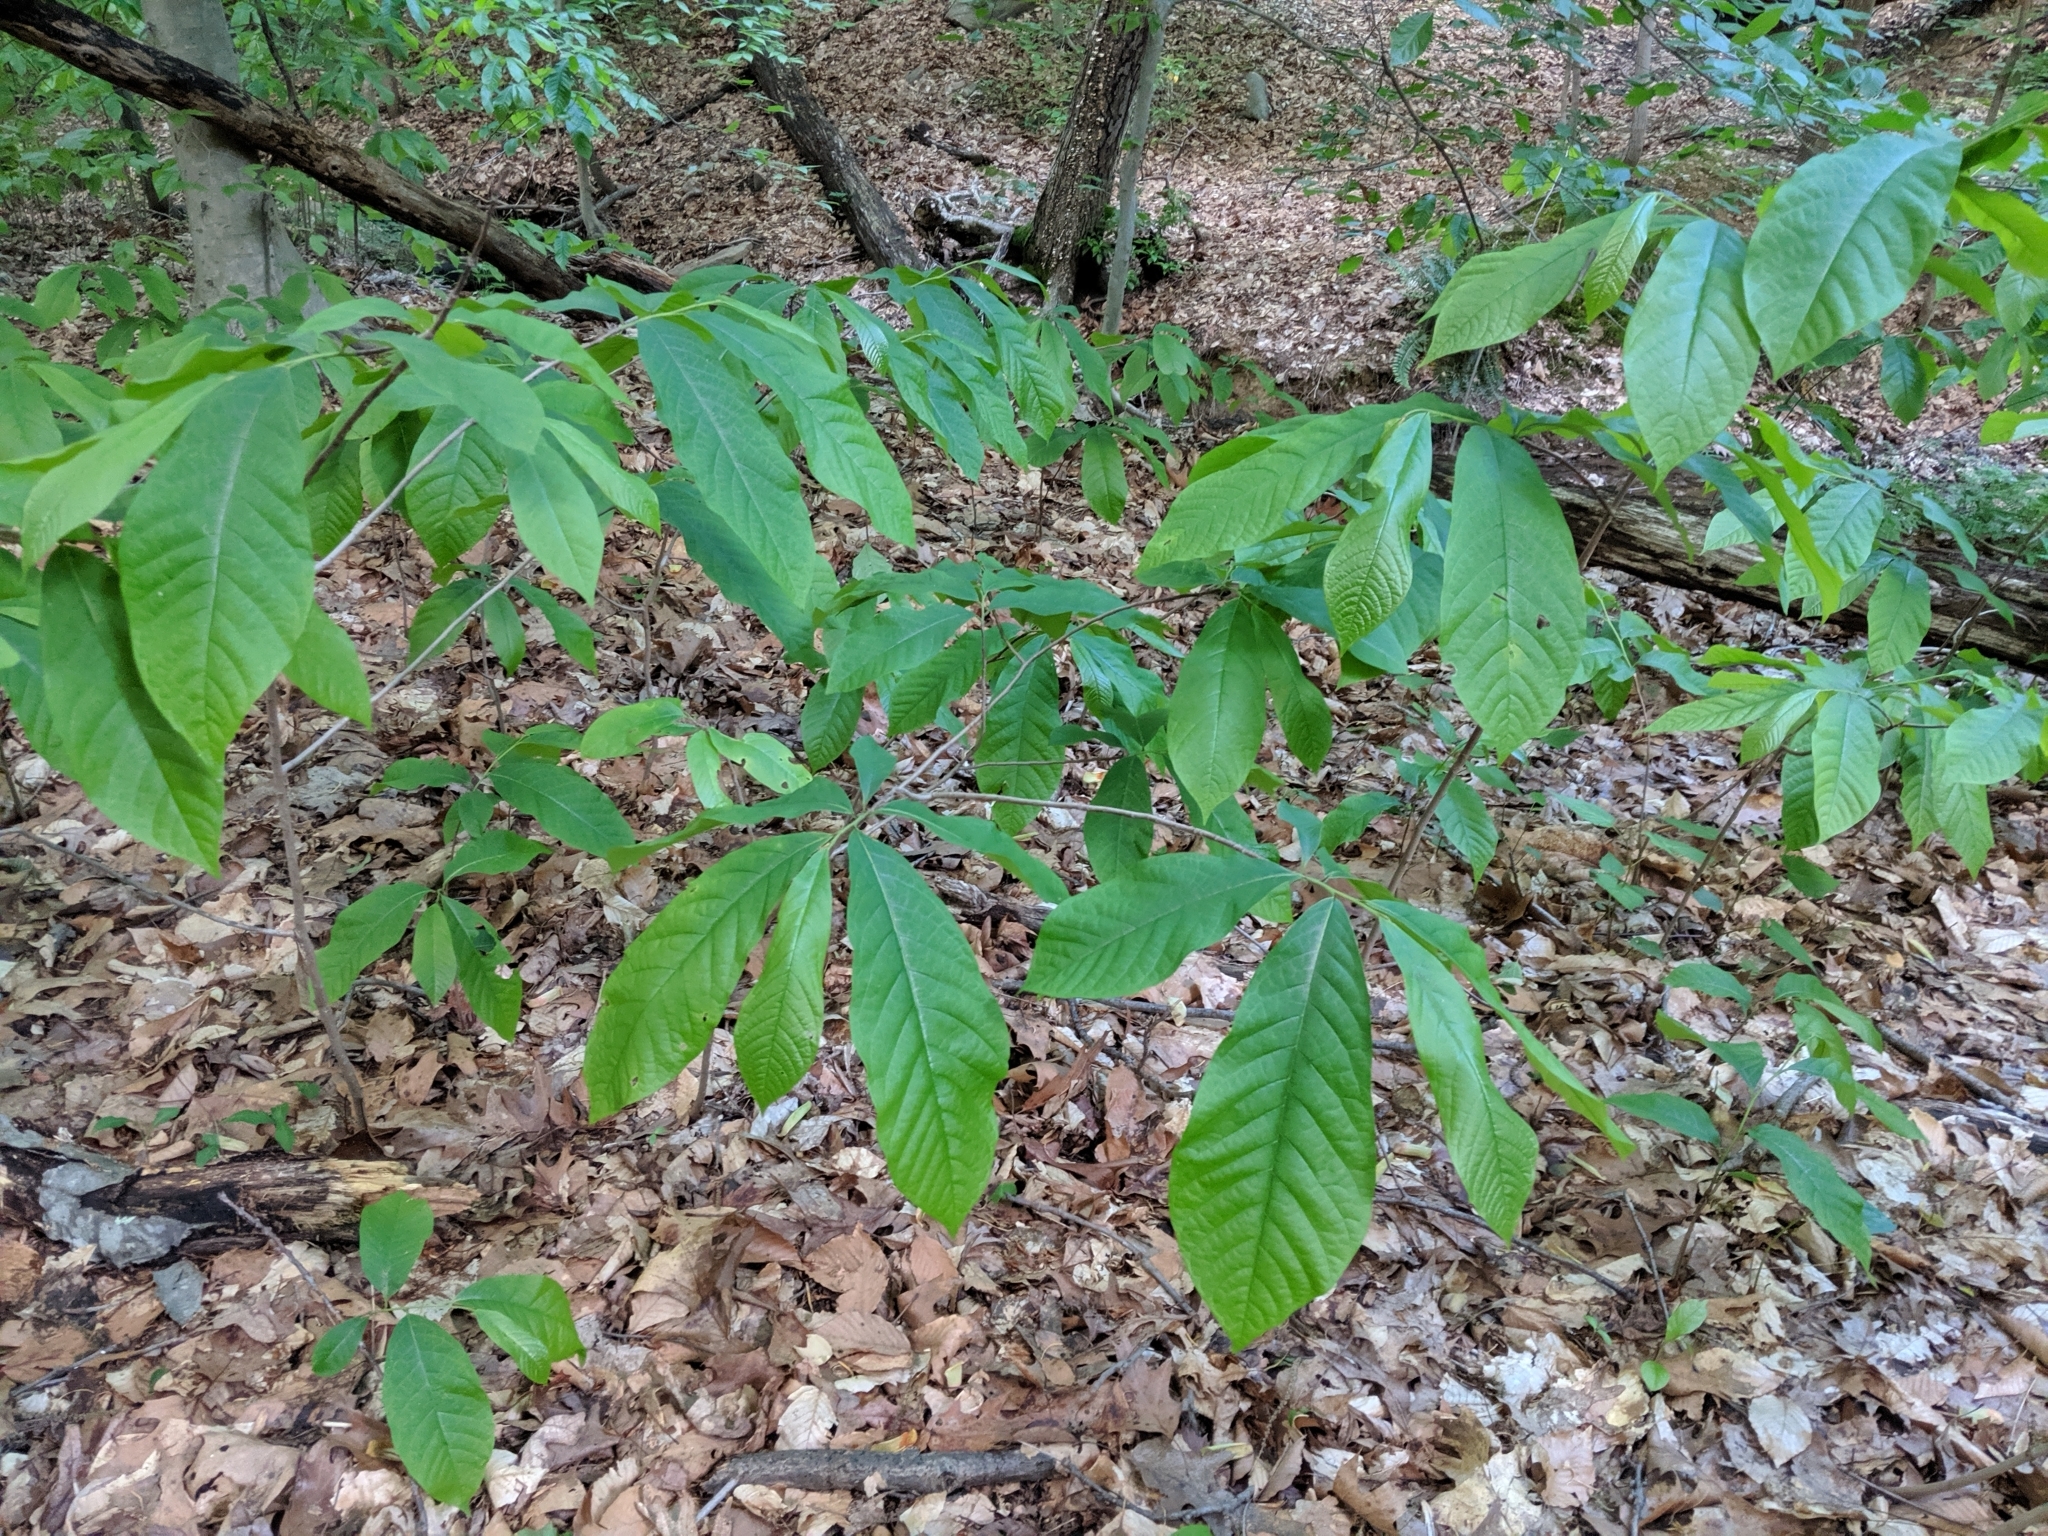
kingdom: Plantae
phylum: Tracheophyta
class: Magnoliopsida
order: Magnoliales
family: Annonaceae
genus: Asimina
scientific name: Asimina triloba
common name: Dog-banana
